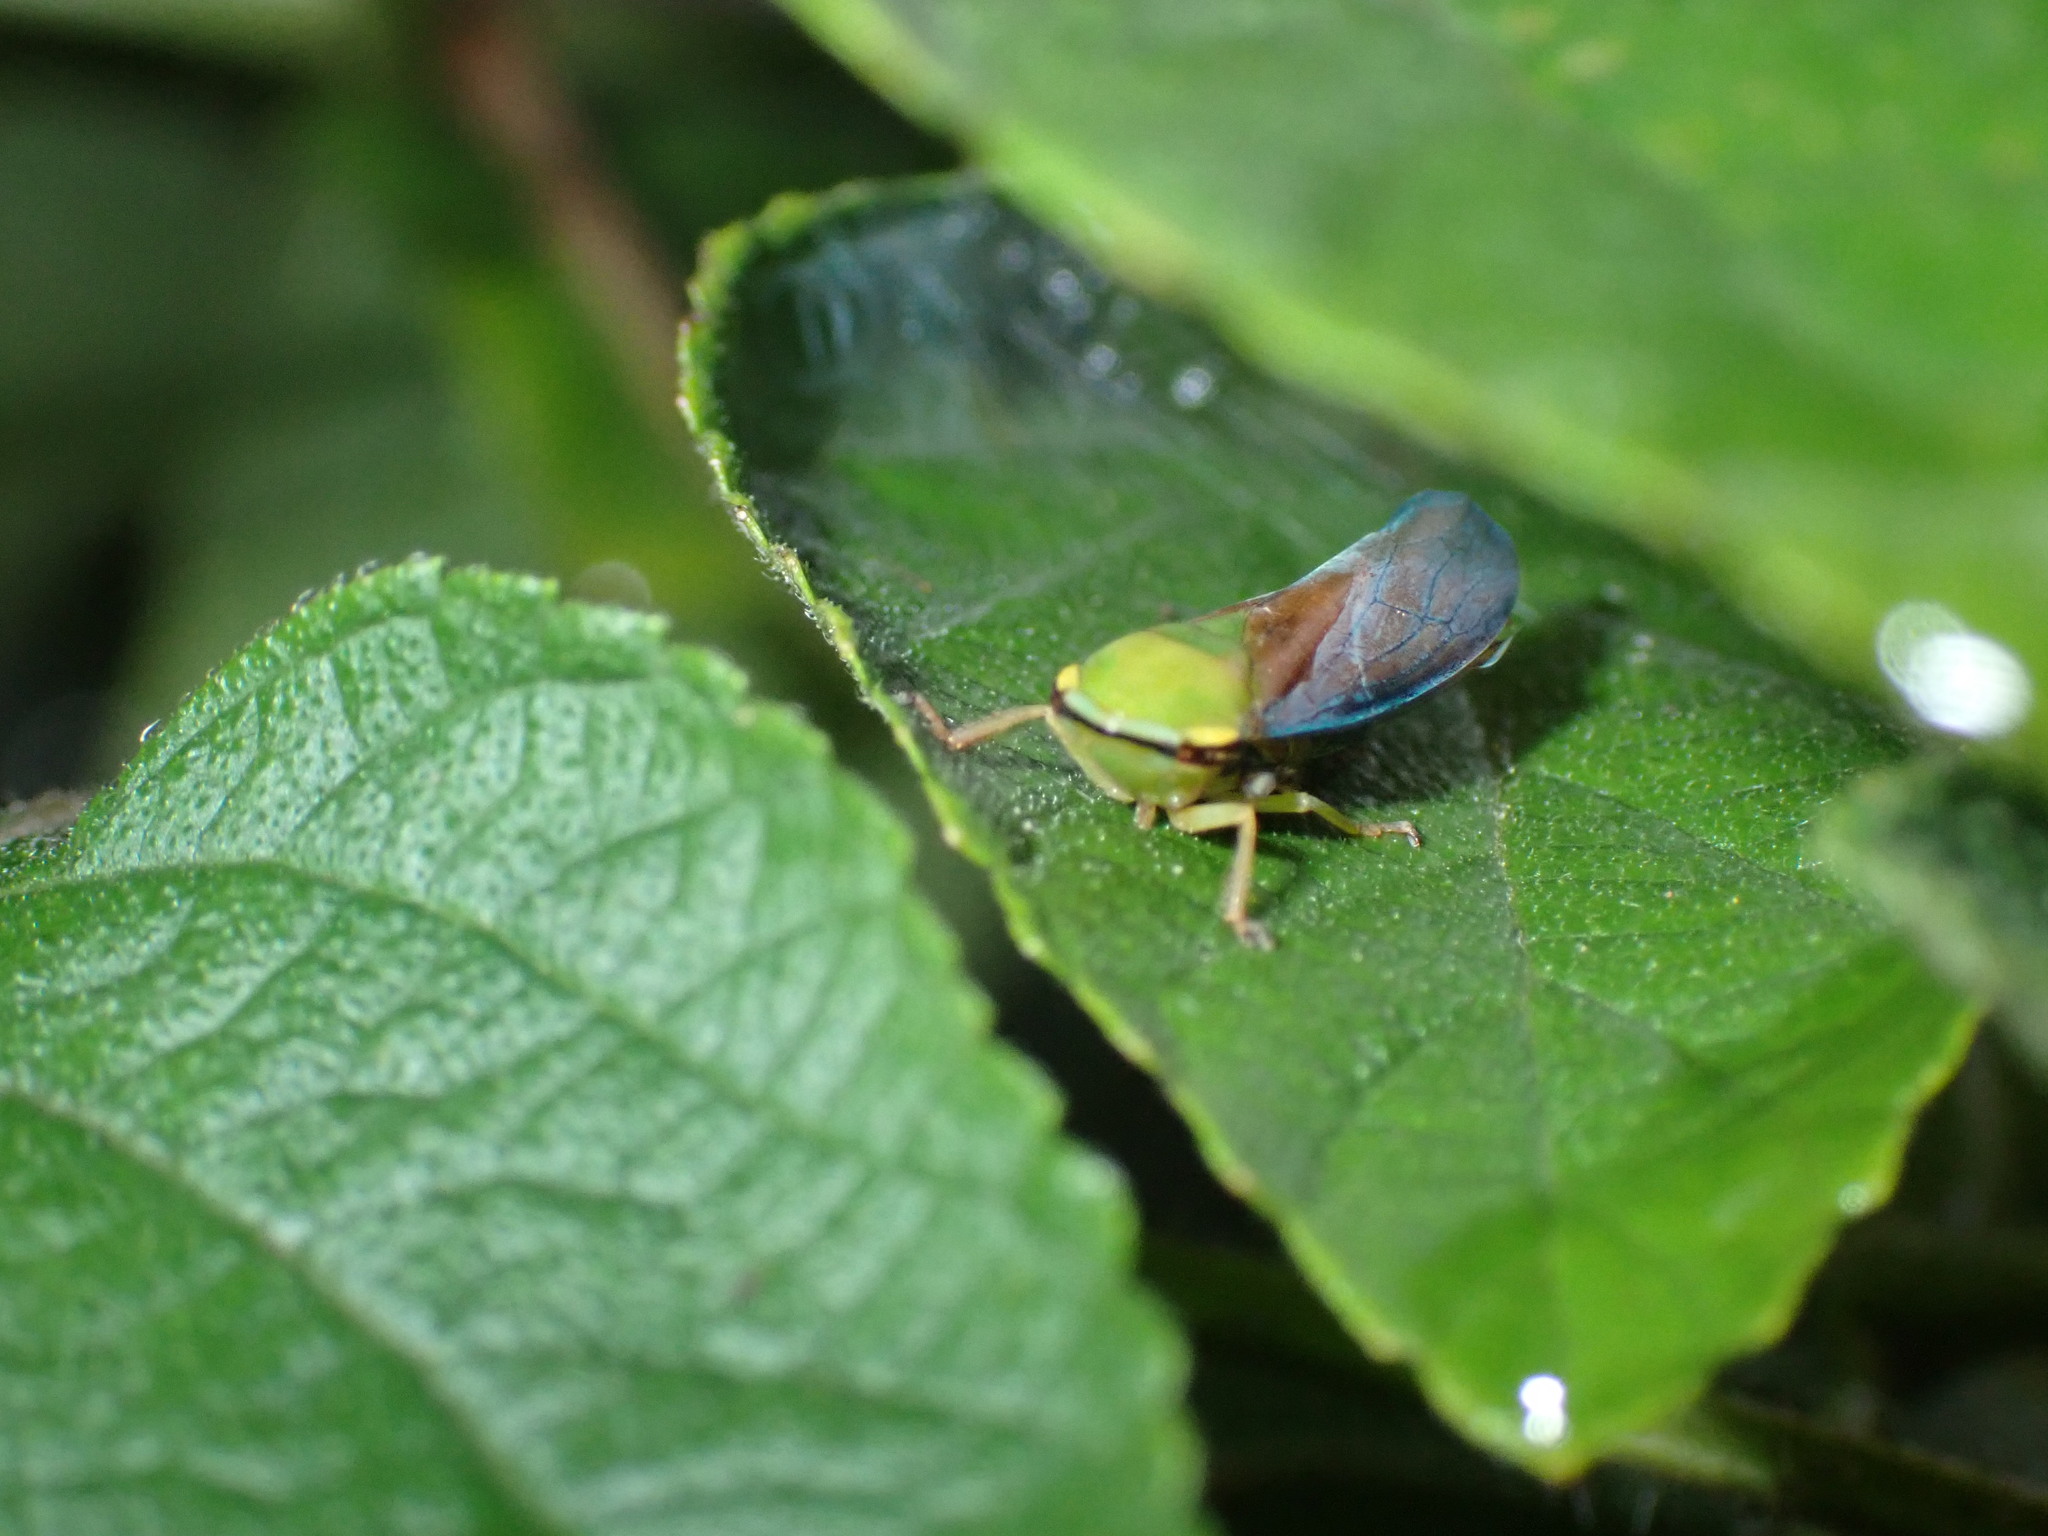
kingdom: Animalia
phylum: Arthropoda
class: Insecta
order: Hemiptera
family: Cicadellidae
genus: Tartessus
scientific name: Tartessus ferrugineus
